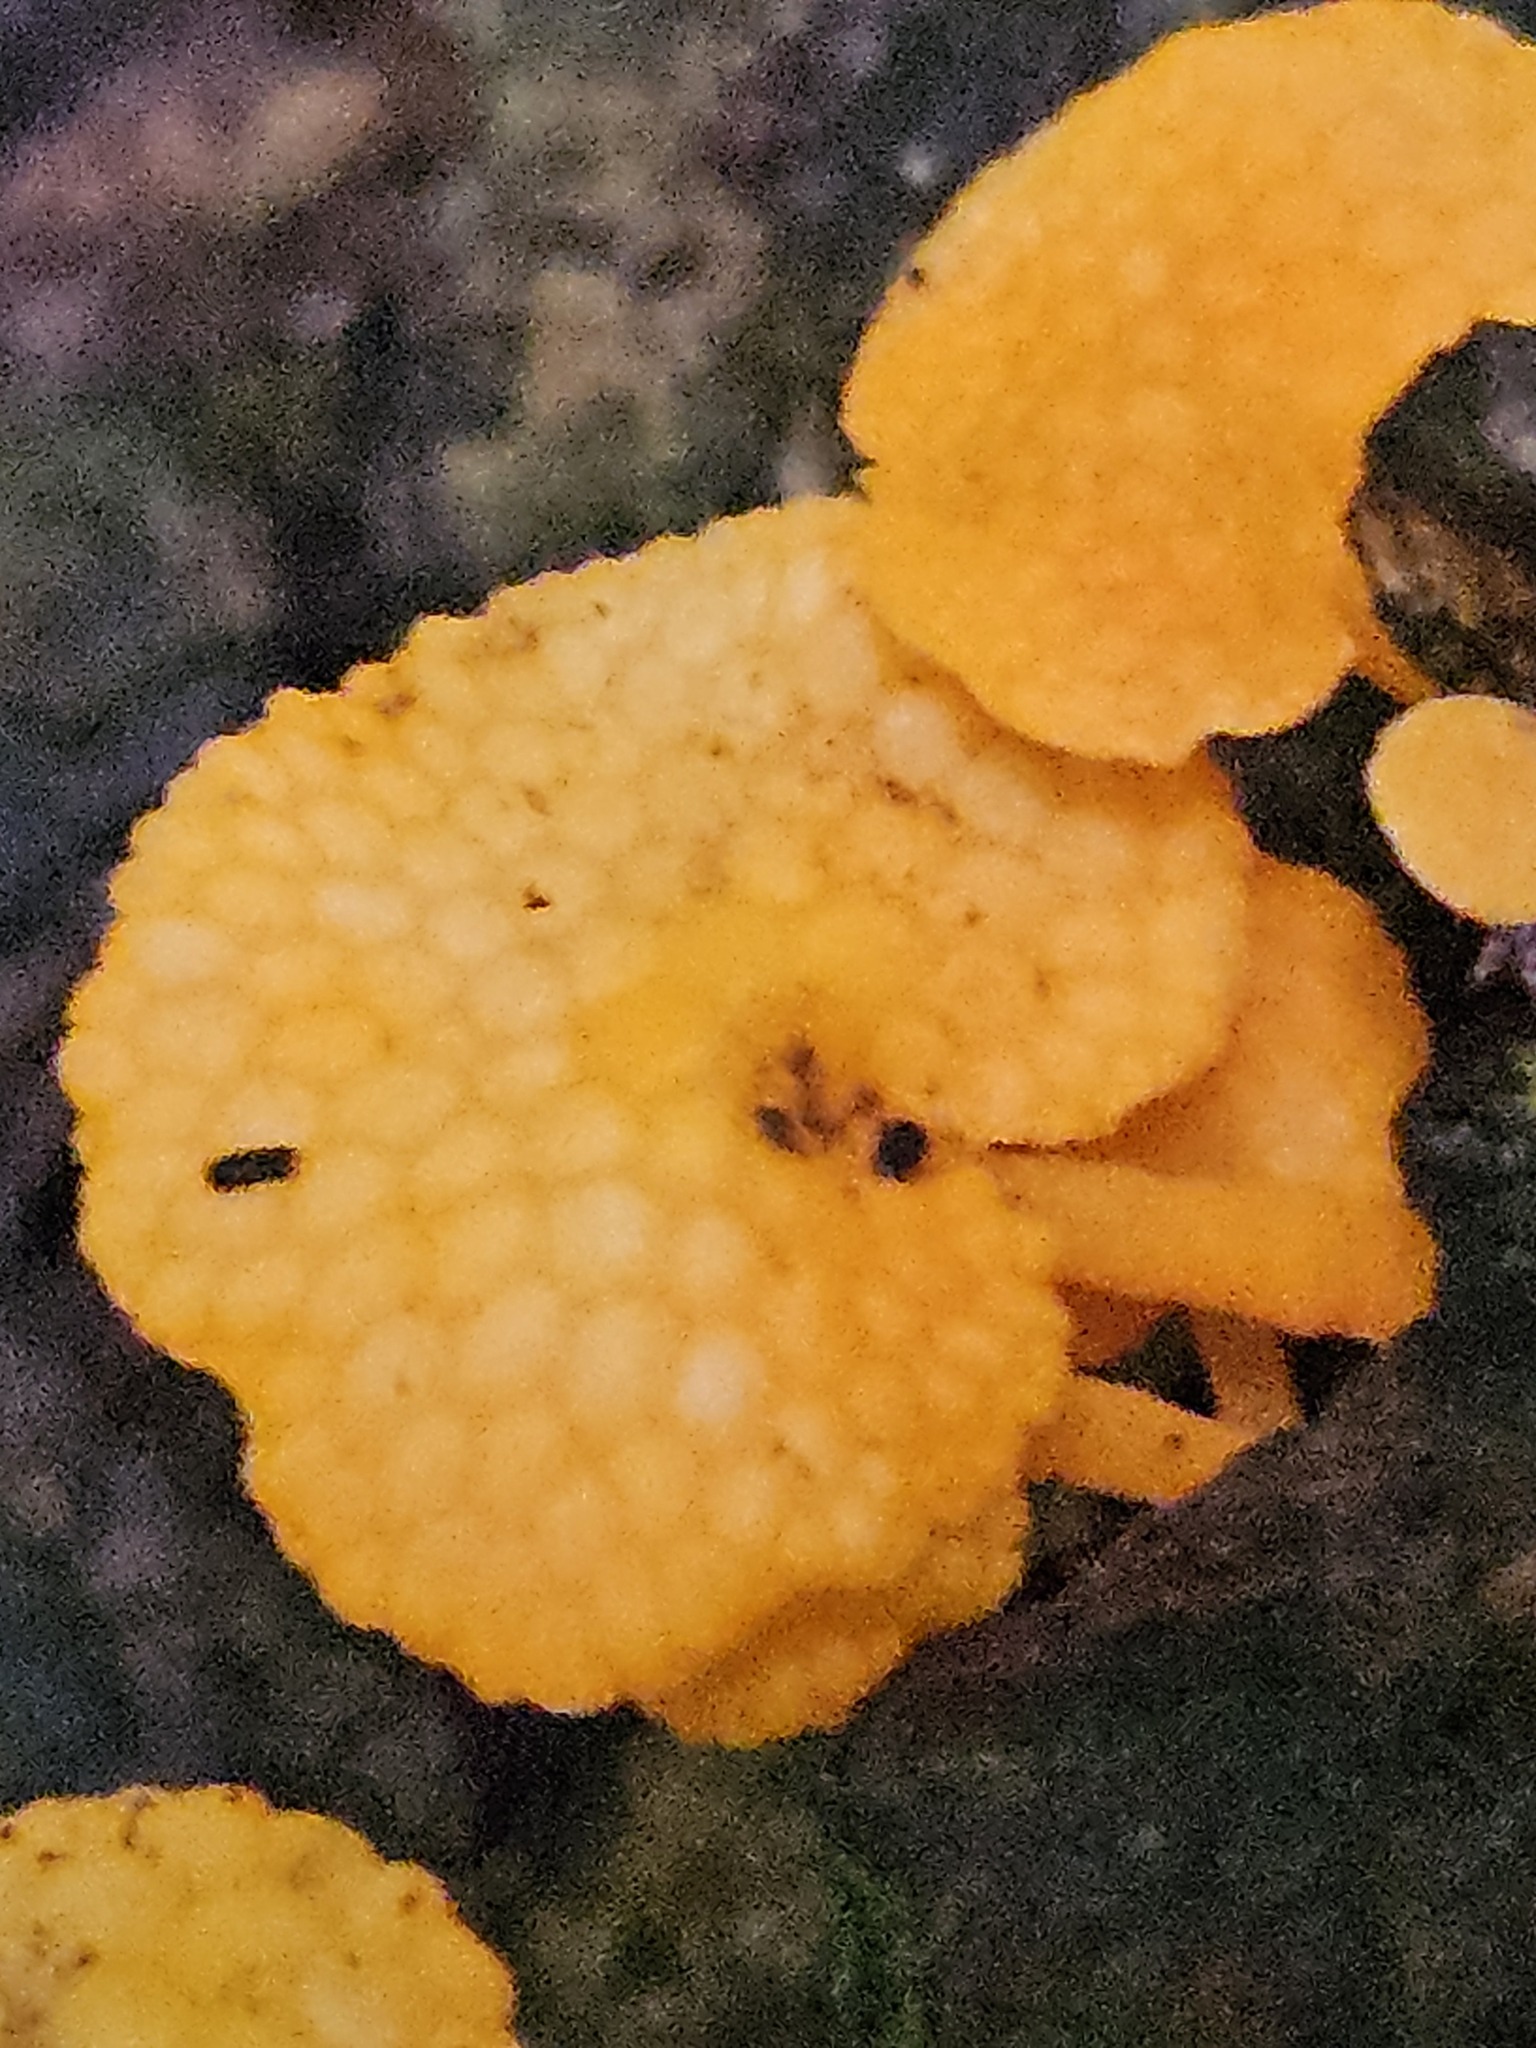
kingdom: Fungi
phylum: Basidiomycota
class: Agaricomycetes
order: Agaricales
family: Mycenaceae
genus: Favolaschia
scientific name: Favolaschia claudopus
